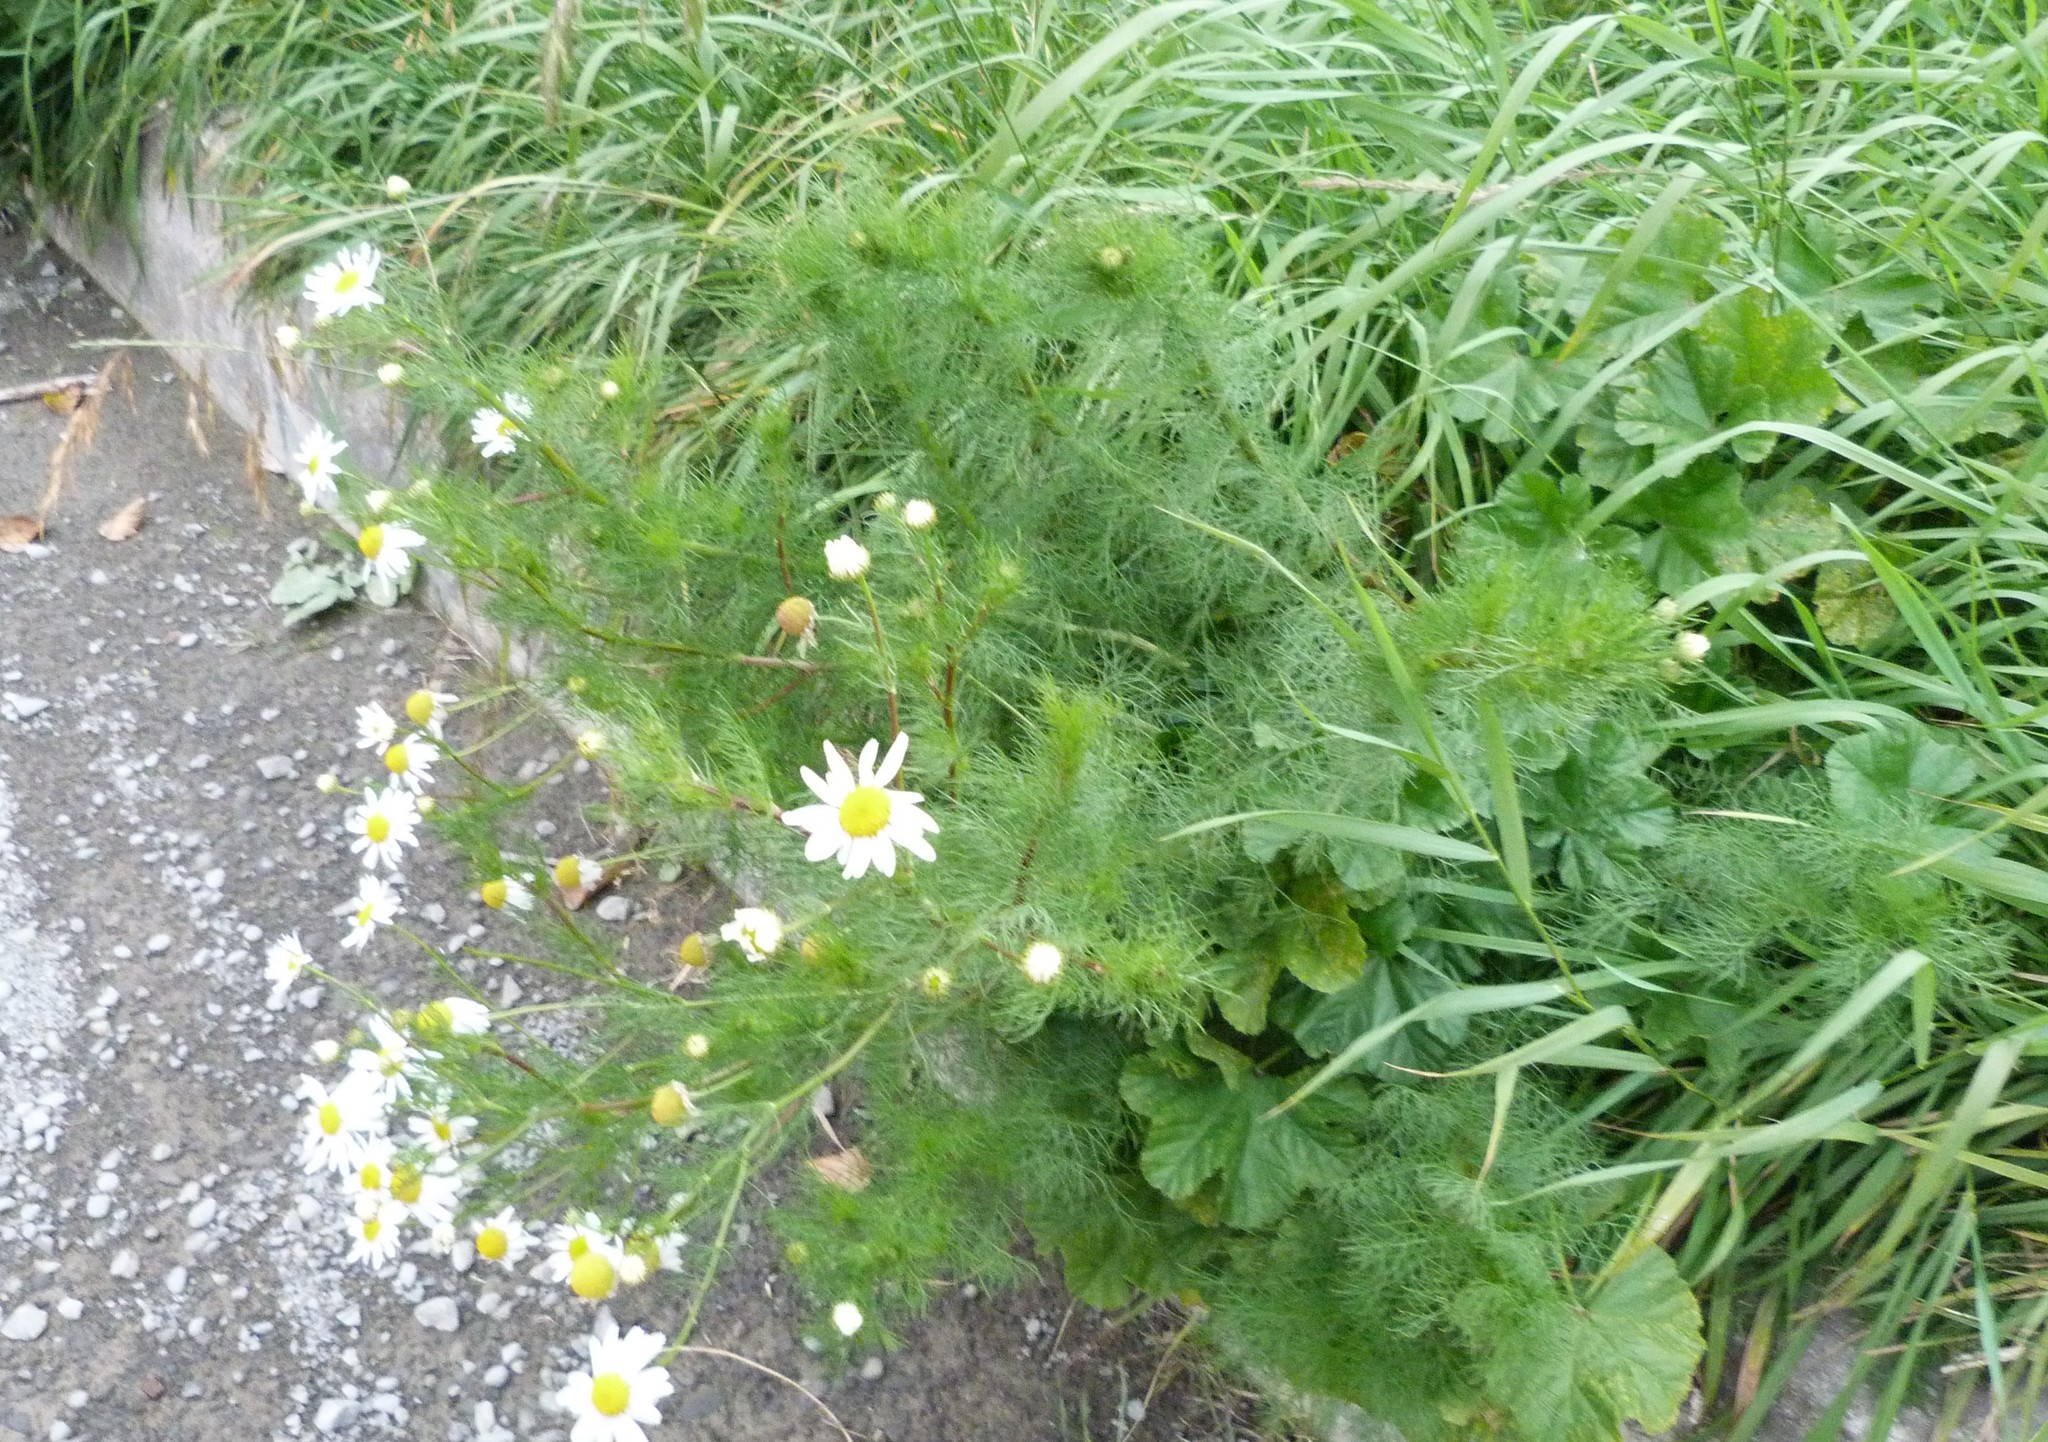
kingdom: Plantae
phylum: Tracheophyta
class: Magnoliopsida
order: Asterales
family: Asteraceae
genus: Tripleurospermum
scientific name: Tripleurospermum inodorum
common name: Scentless mayweed
